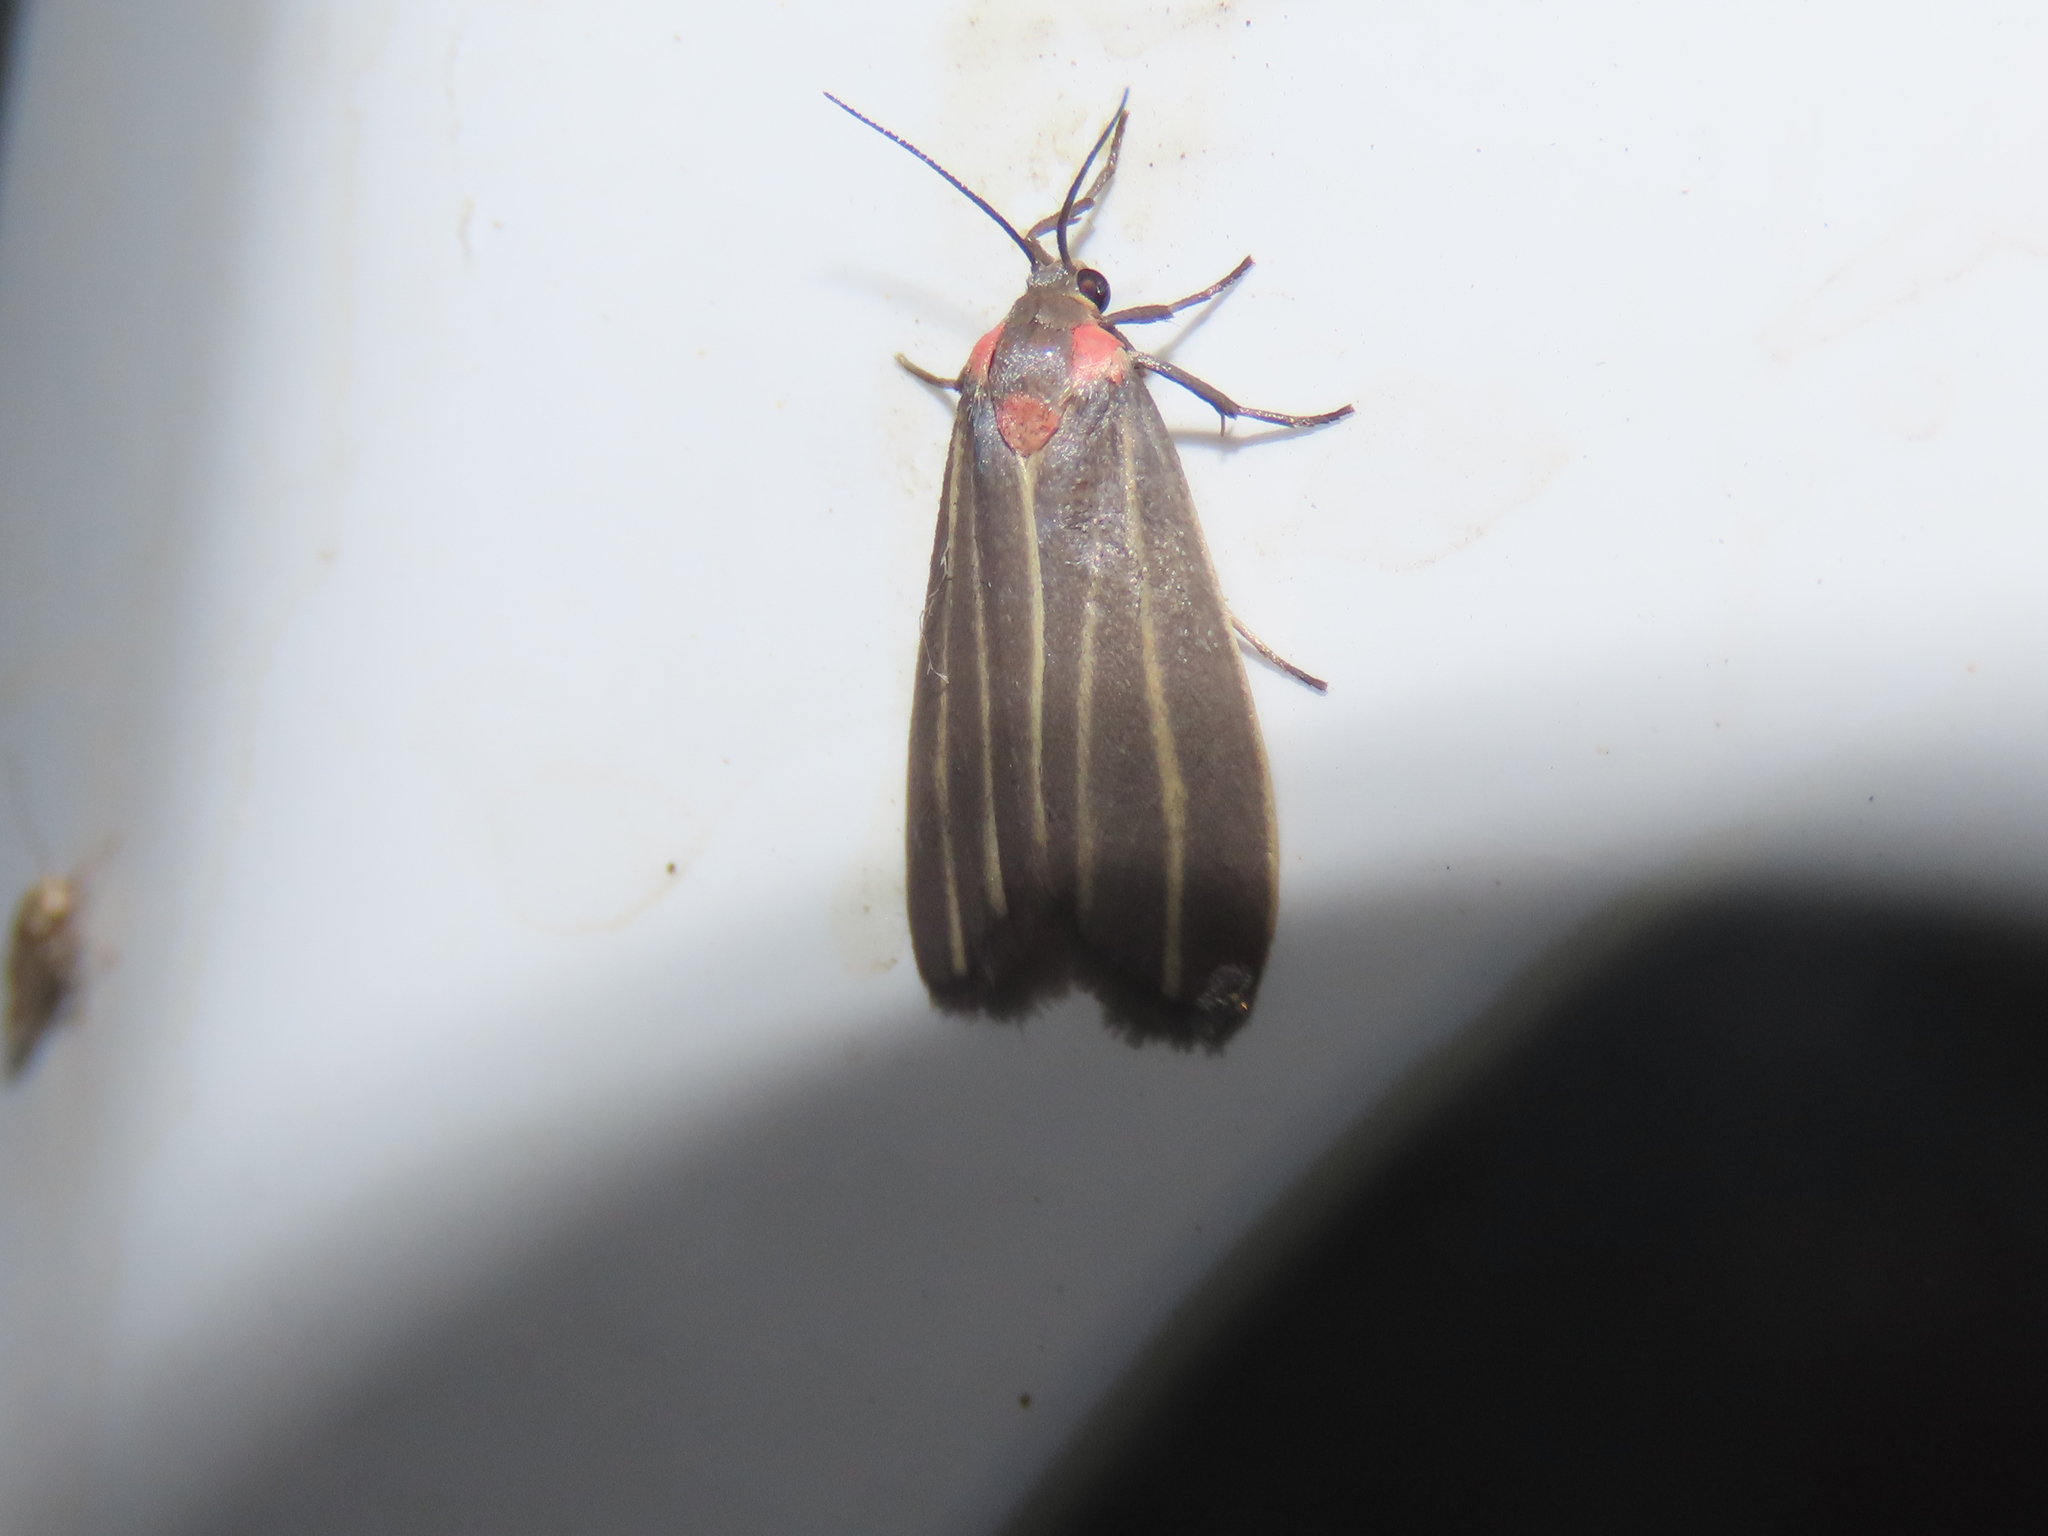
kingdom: Animalia
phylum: Arthropoda
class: Insecta
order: Lepidoptera
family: Erebidae
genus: Haematomis
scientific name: Haematomis uniformis
